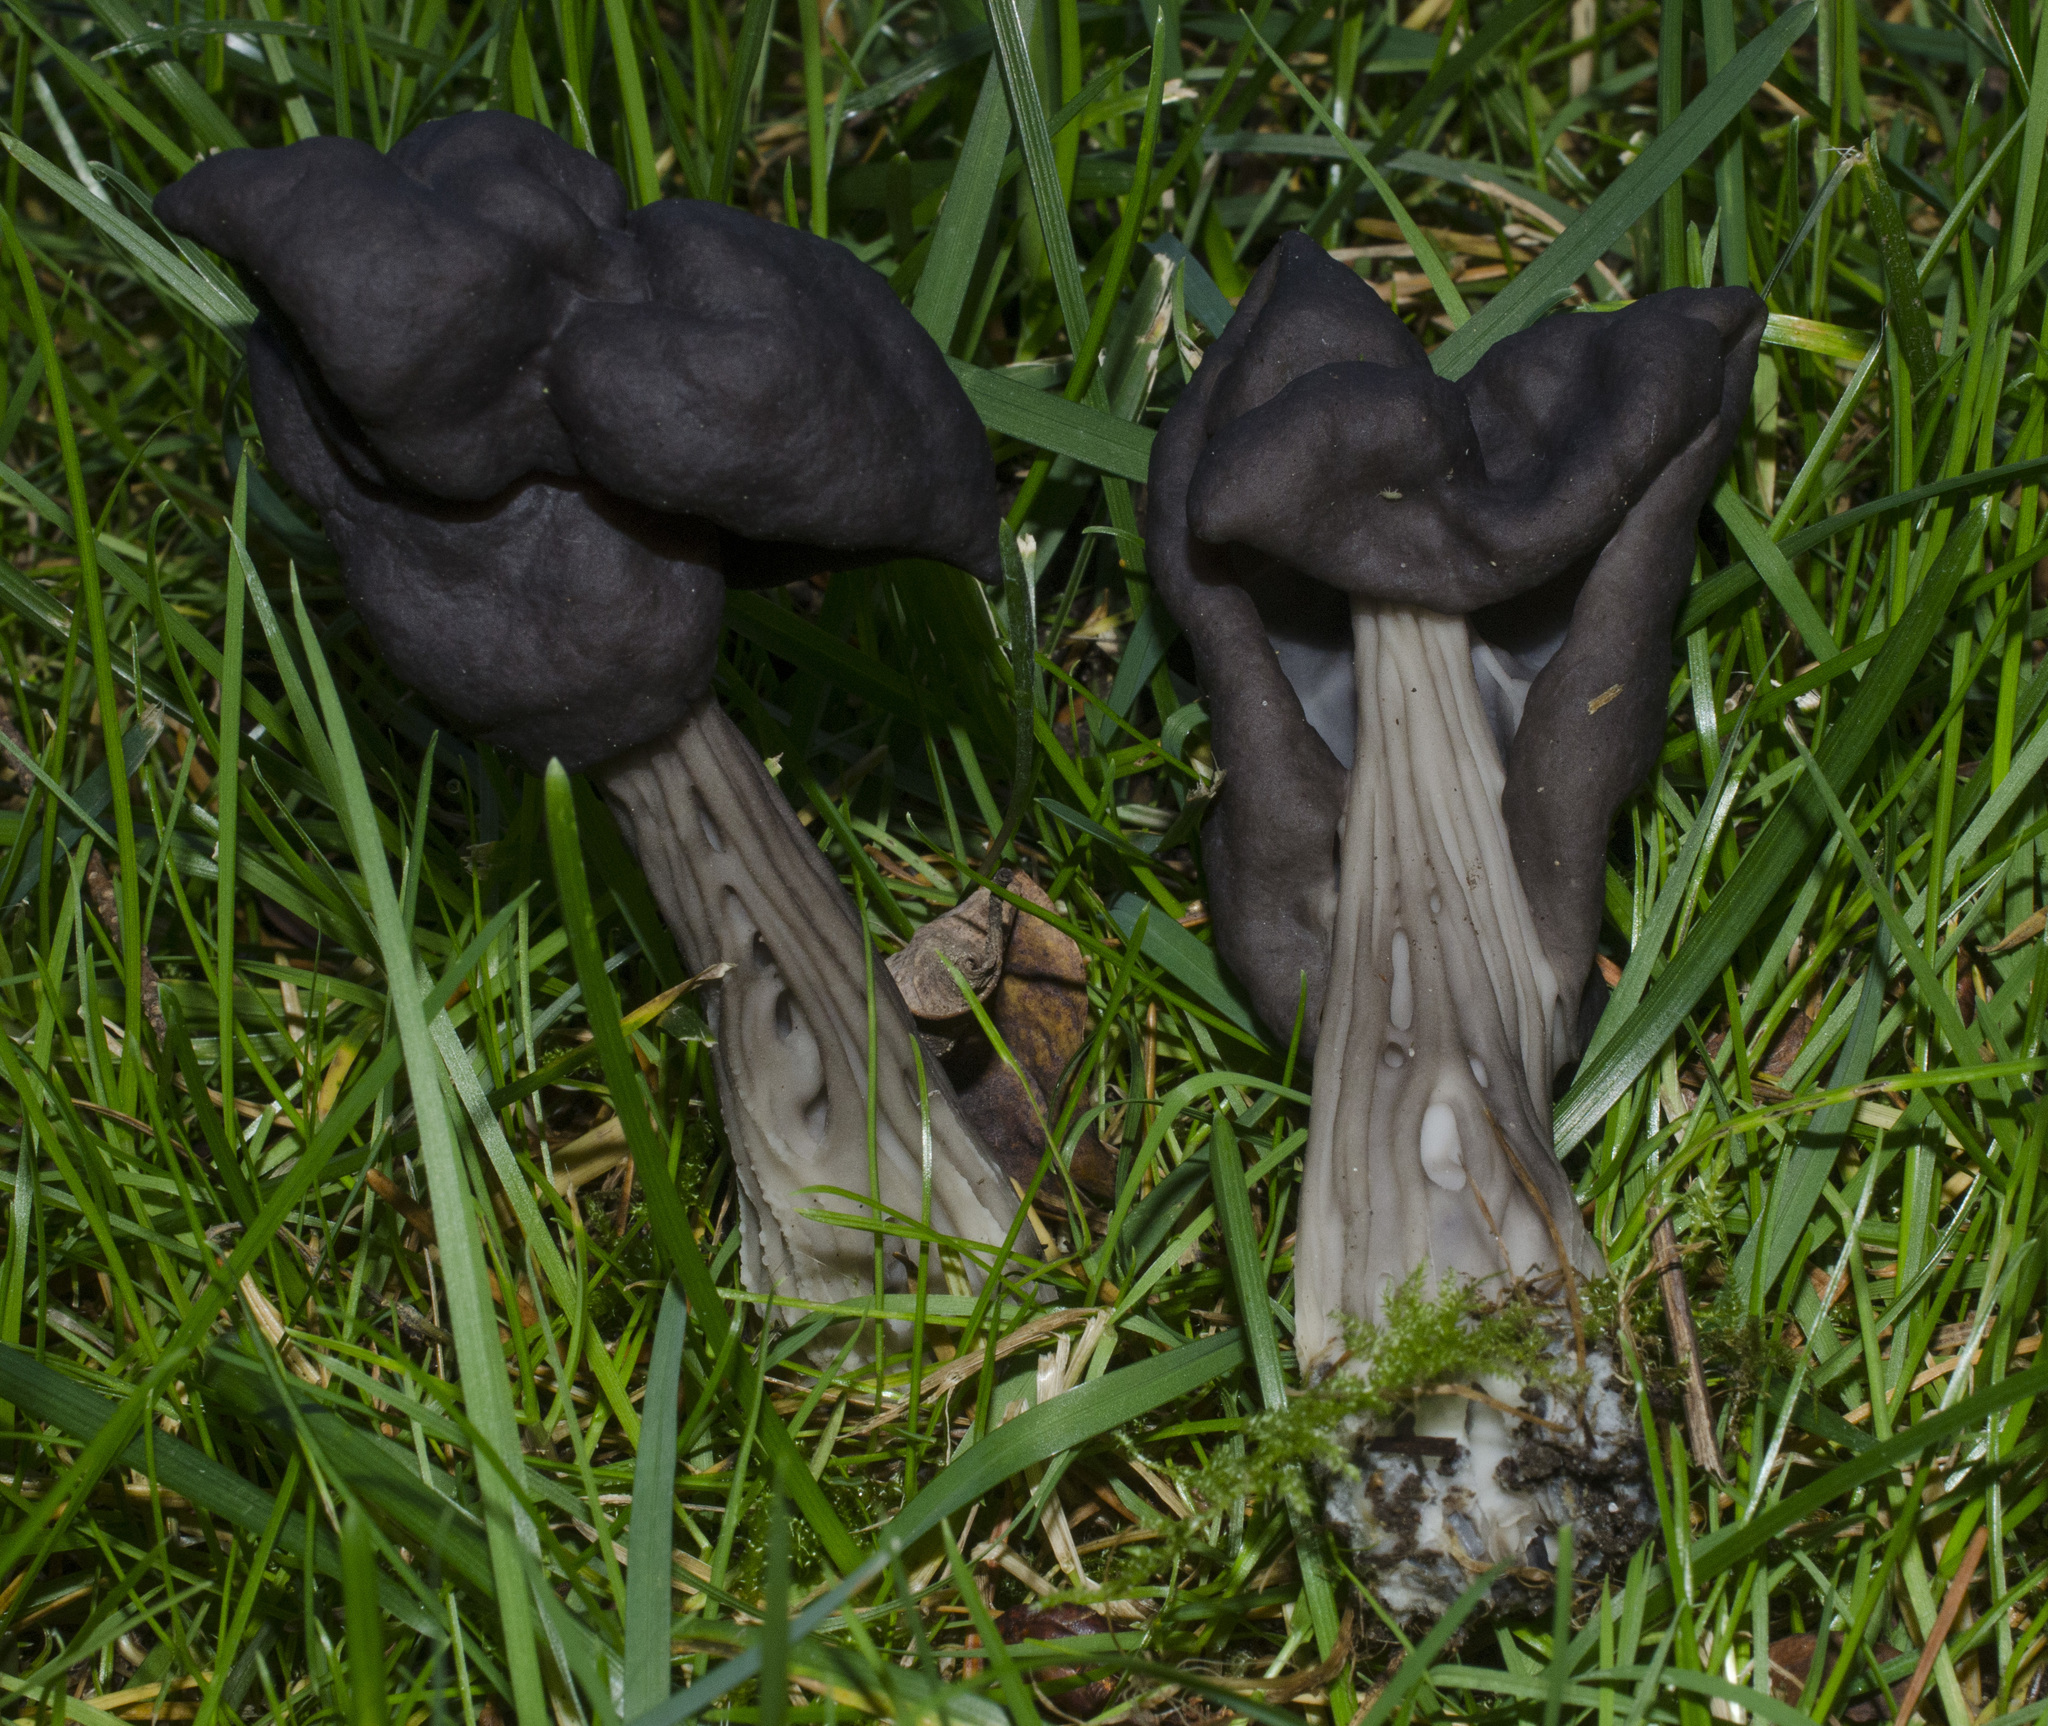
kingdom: Fungi
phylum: Ascomycota
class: Pezizomycetes
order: Pezizales
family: Helvellaceae
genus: Helvella
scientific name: Helvella vespertina
